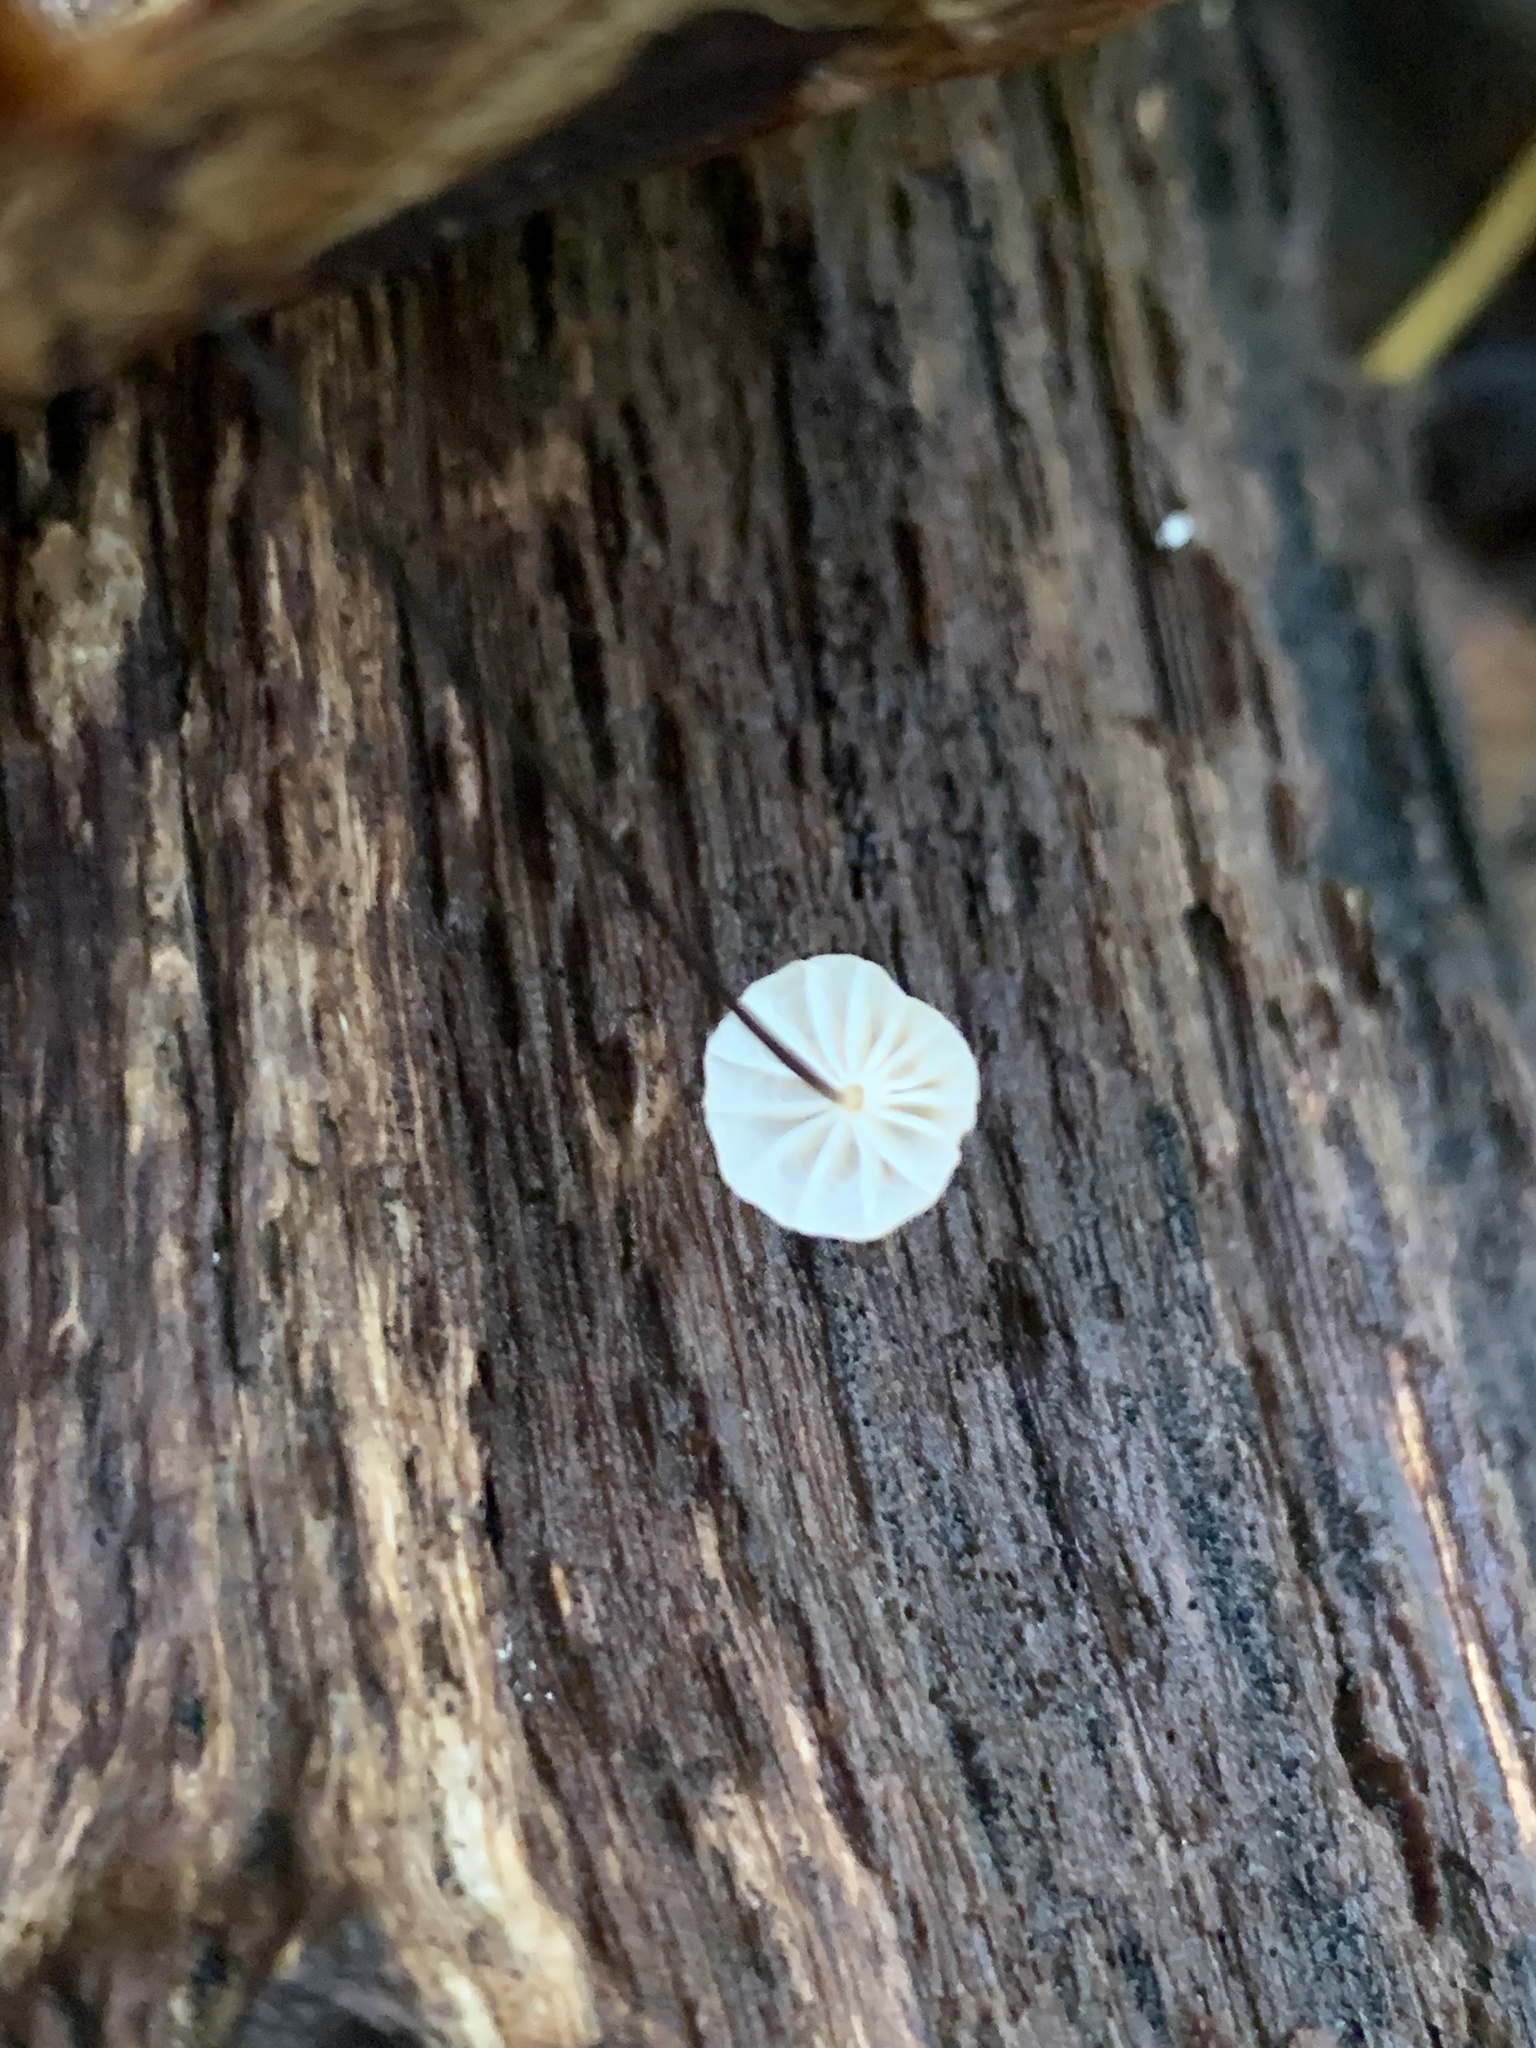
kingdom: Fungi
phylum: Basidiomycota
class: Agaricomycetes
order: Agaricales
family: Marasmiaceae
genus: Marasmius
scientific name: Marasmius capillaris
